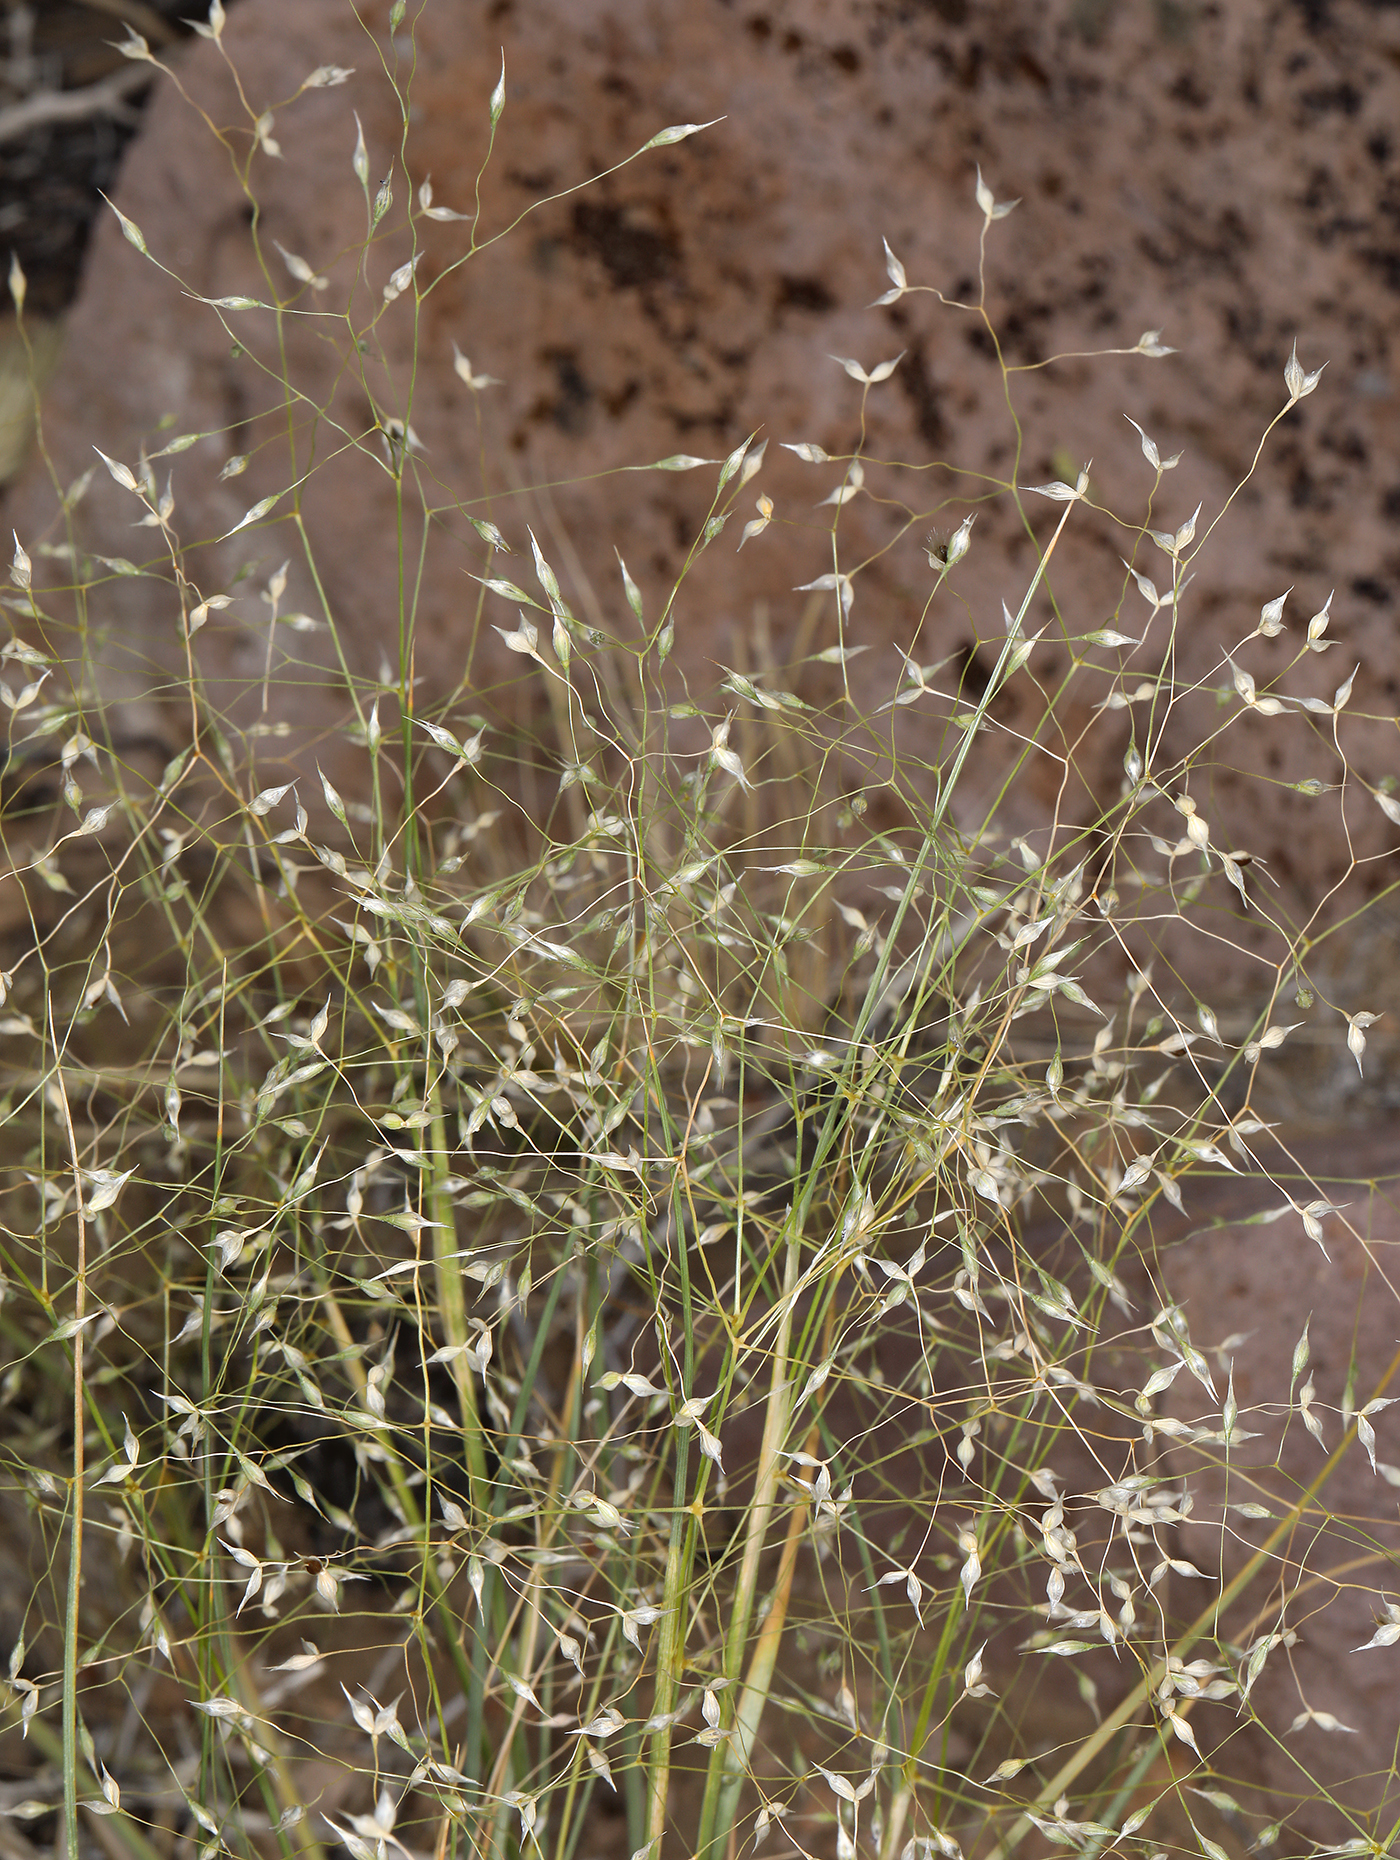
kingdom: Plantae
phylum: Tracheophyta
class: Liliopsida
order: Poales
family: Poaceae
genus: Eriocoma
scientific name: Eriocoma hymenoides
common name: Indian mountain ricegrass
